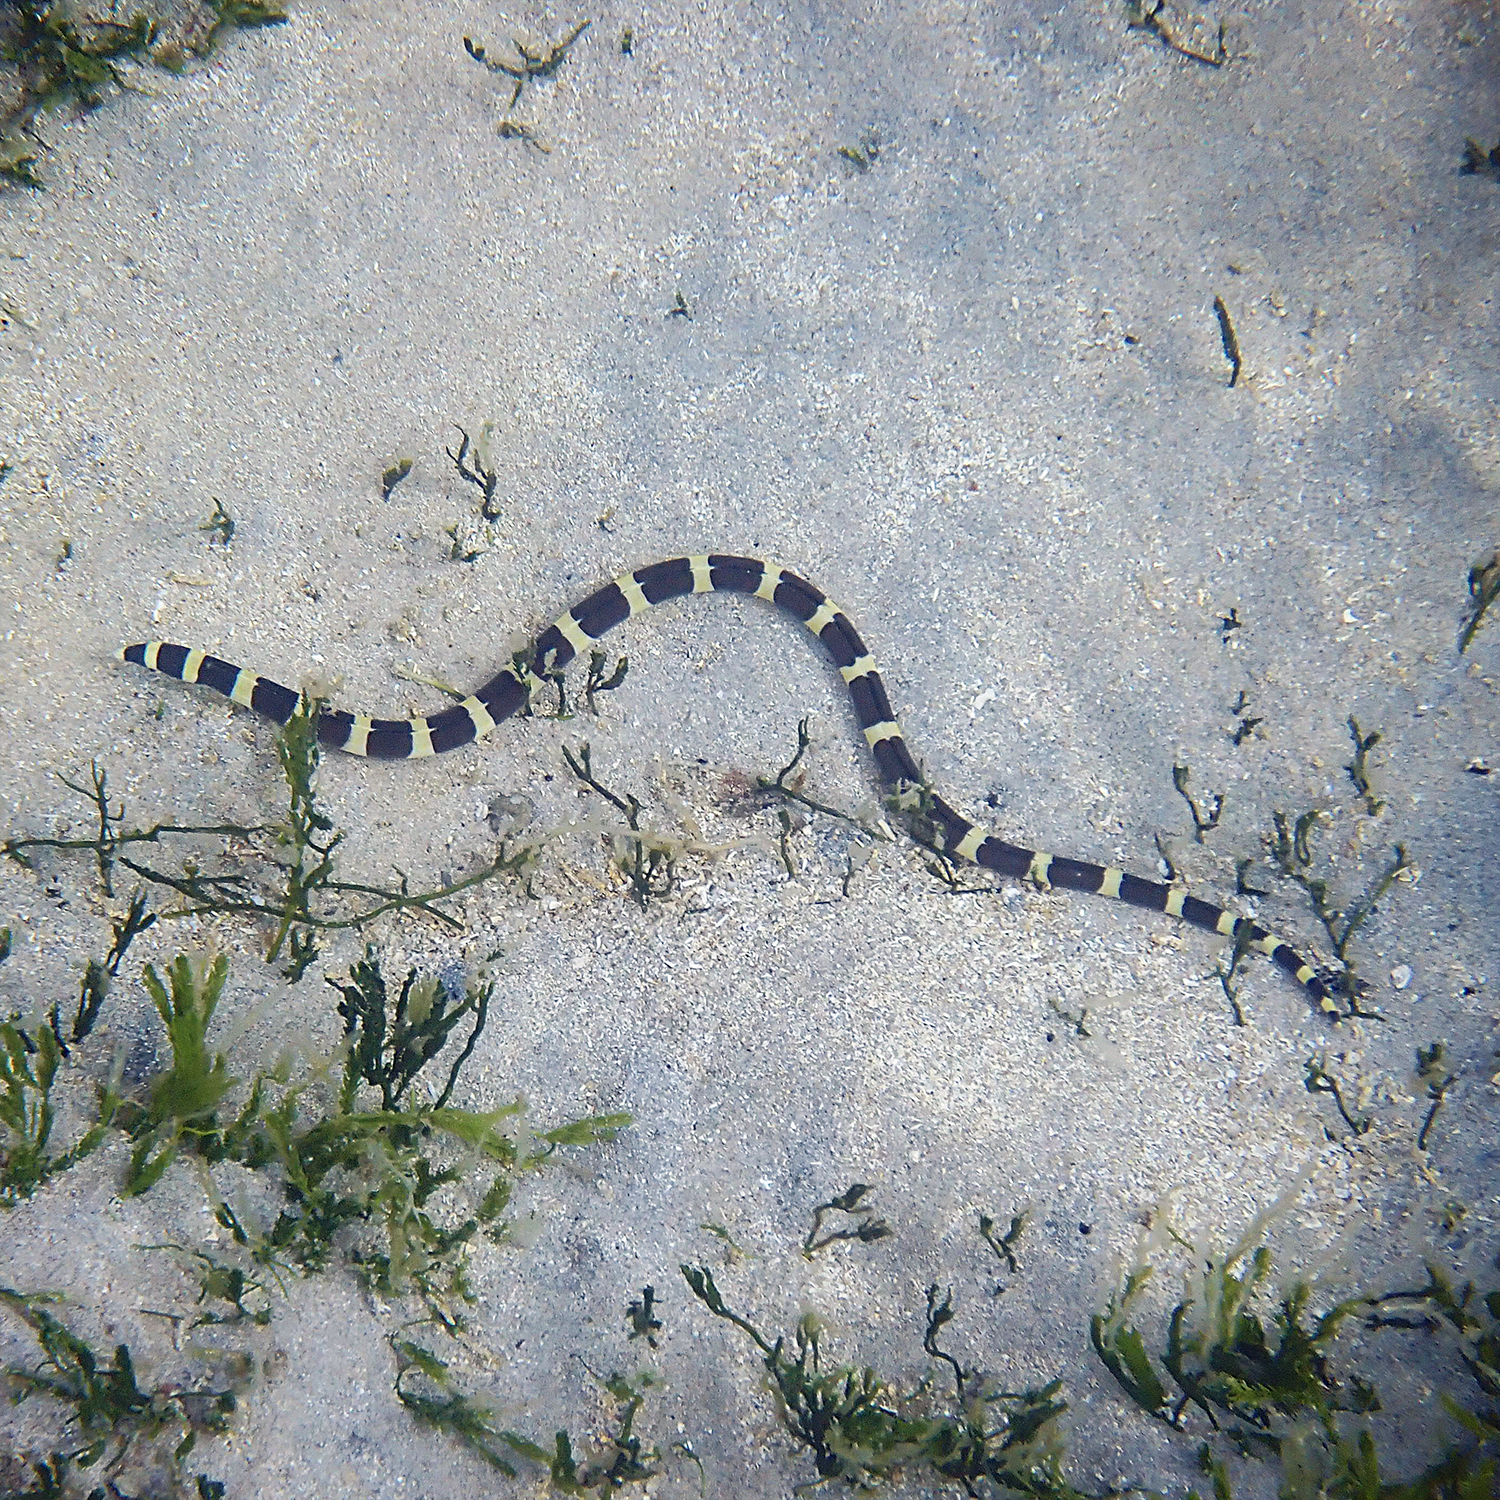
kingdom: Animalia
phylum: Chordata
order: Anguilliformes
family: Ophichthidae
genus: Leiuranus
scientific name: Leiuranus semicinctus
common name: Saddled snake eel
